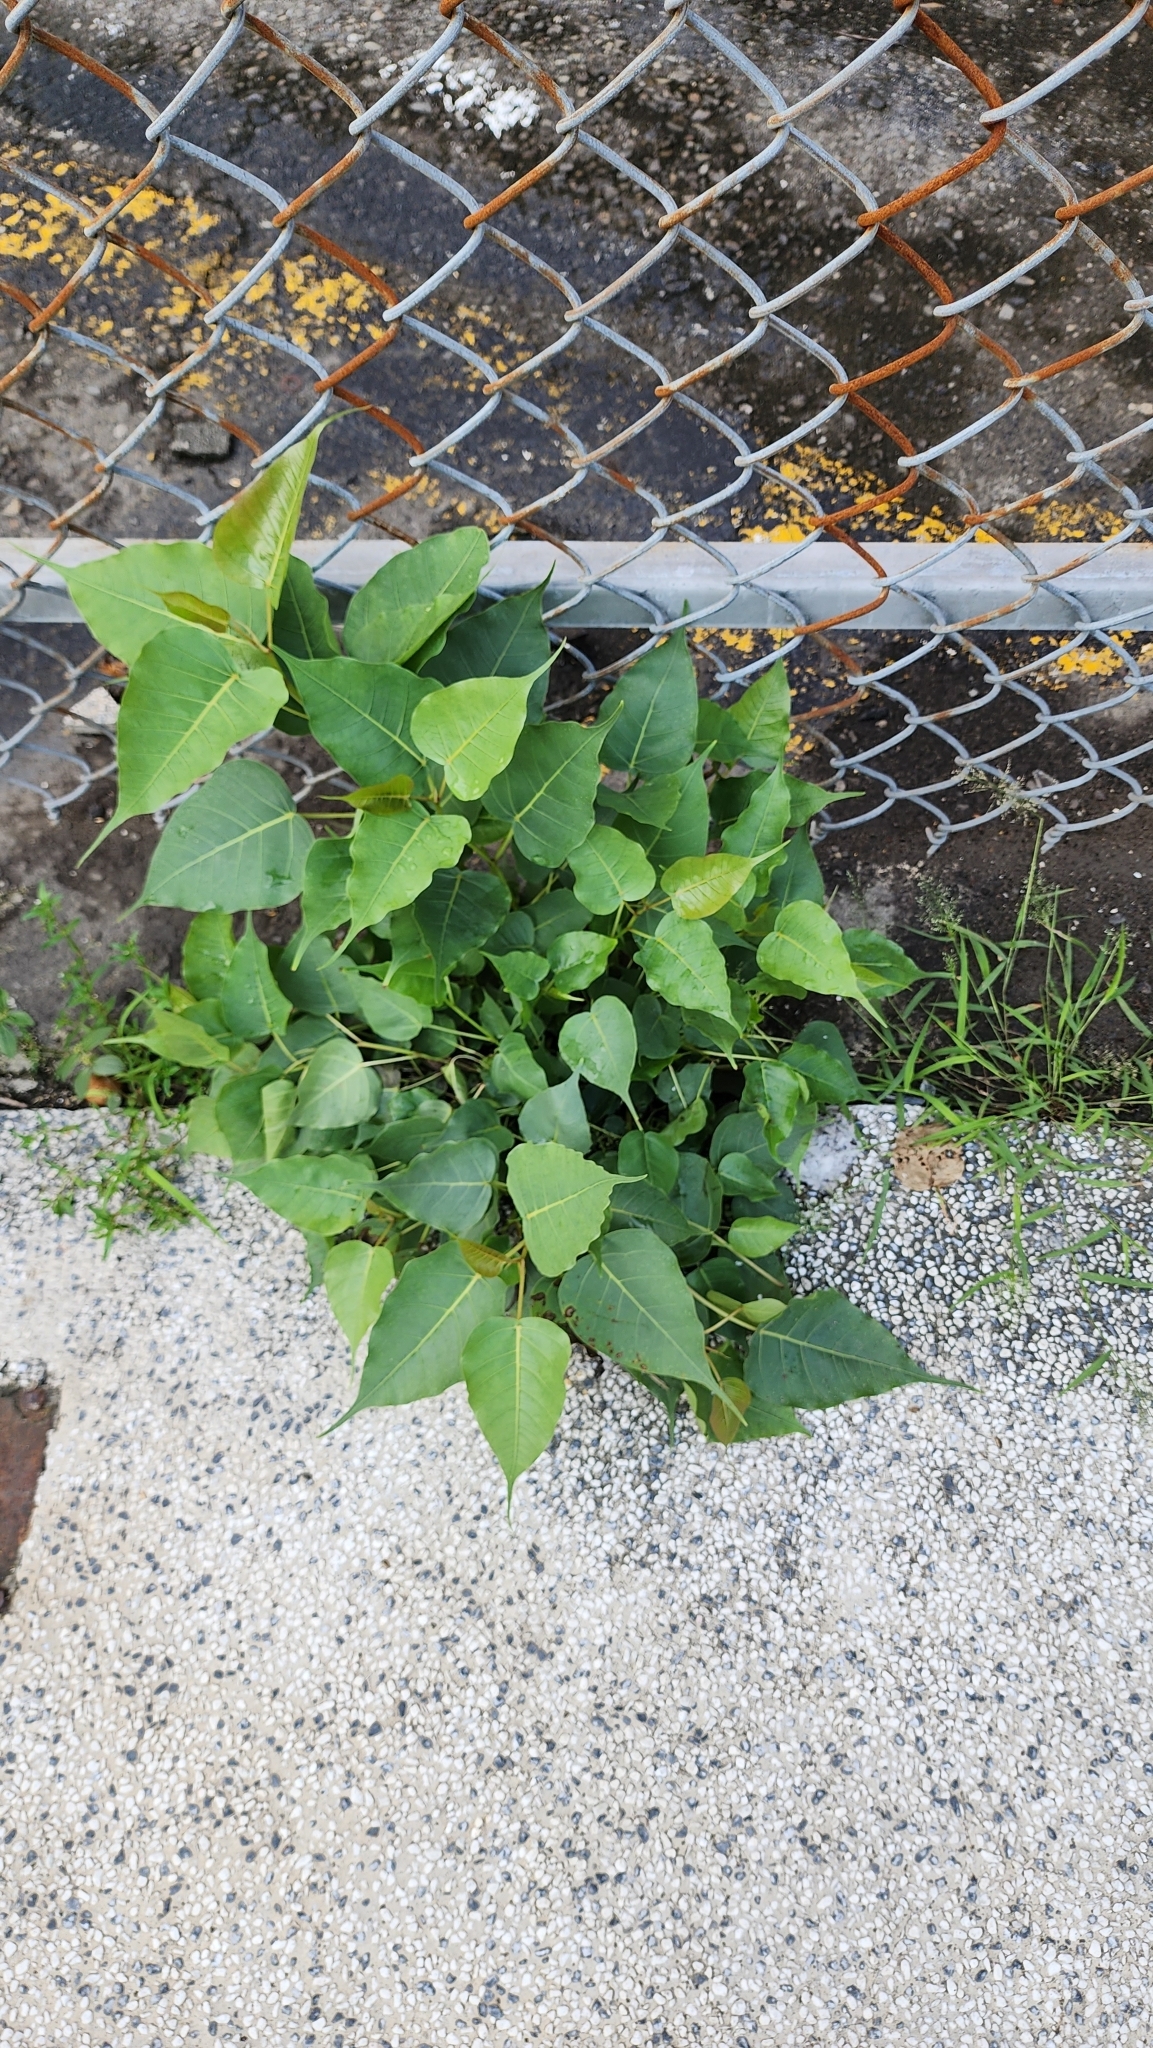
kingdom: Plantae
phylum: Tracheophyta
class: Magnoliopsida
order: Rosales
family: Moraceae
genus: Ficus
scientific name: Ficus religiosa
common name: Bodhi tree
